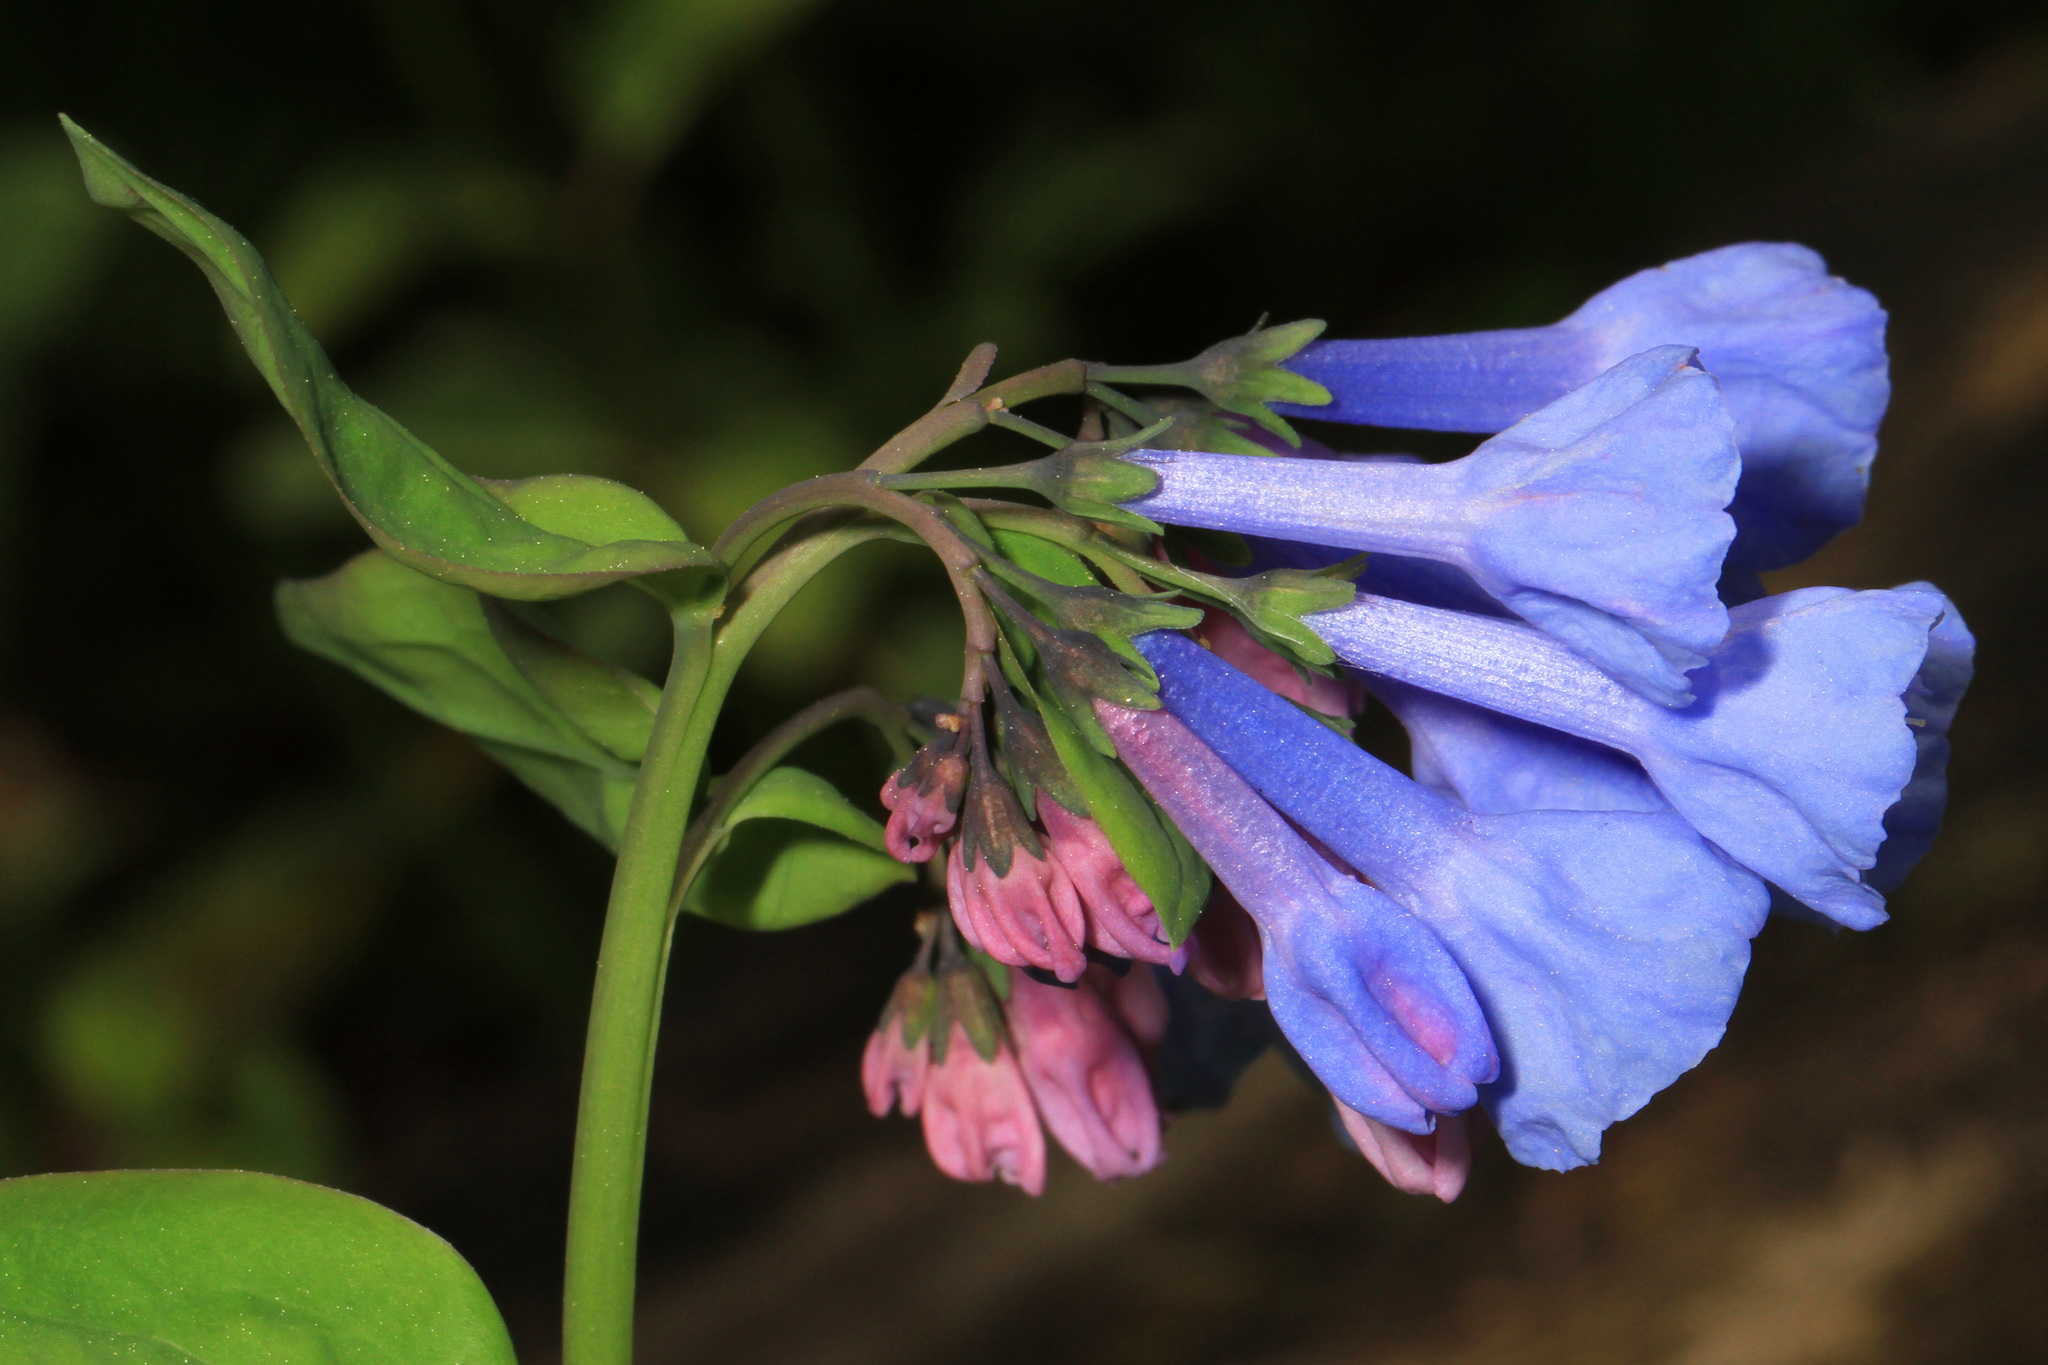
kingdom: Plantae
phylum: Tracheophyta
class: Magnoliopsida
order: Boraginales
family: Boraginaceae
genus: Mertensia
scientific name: Mertensia virginica
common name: Virginia bluebells
